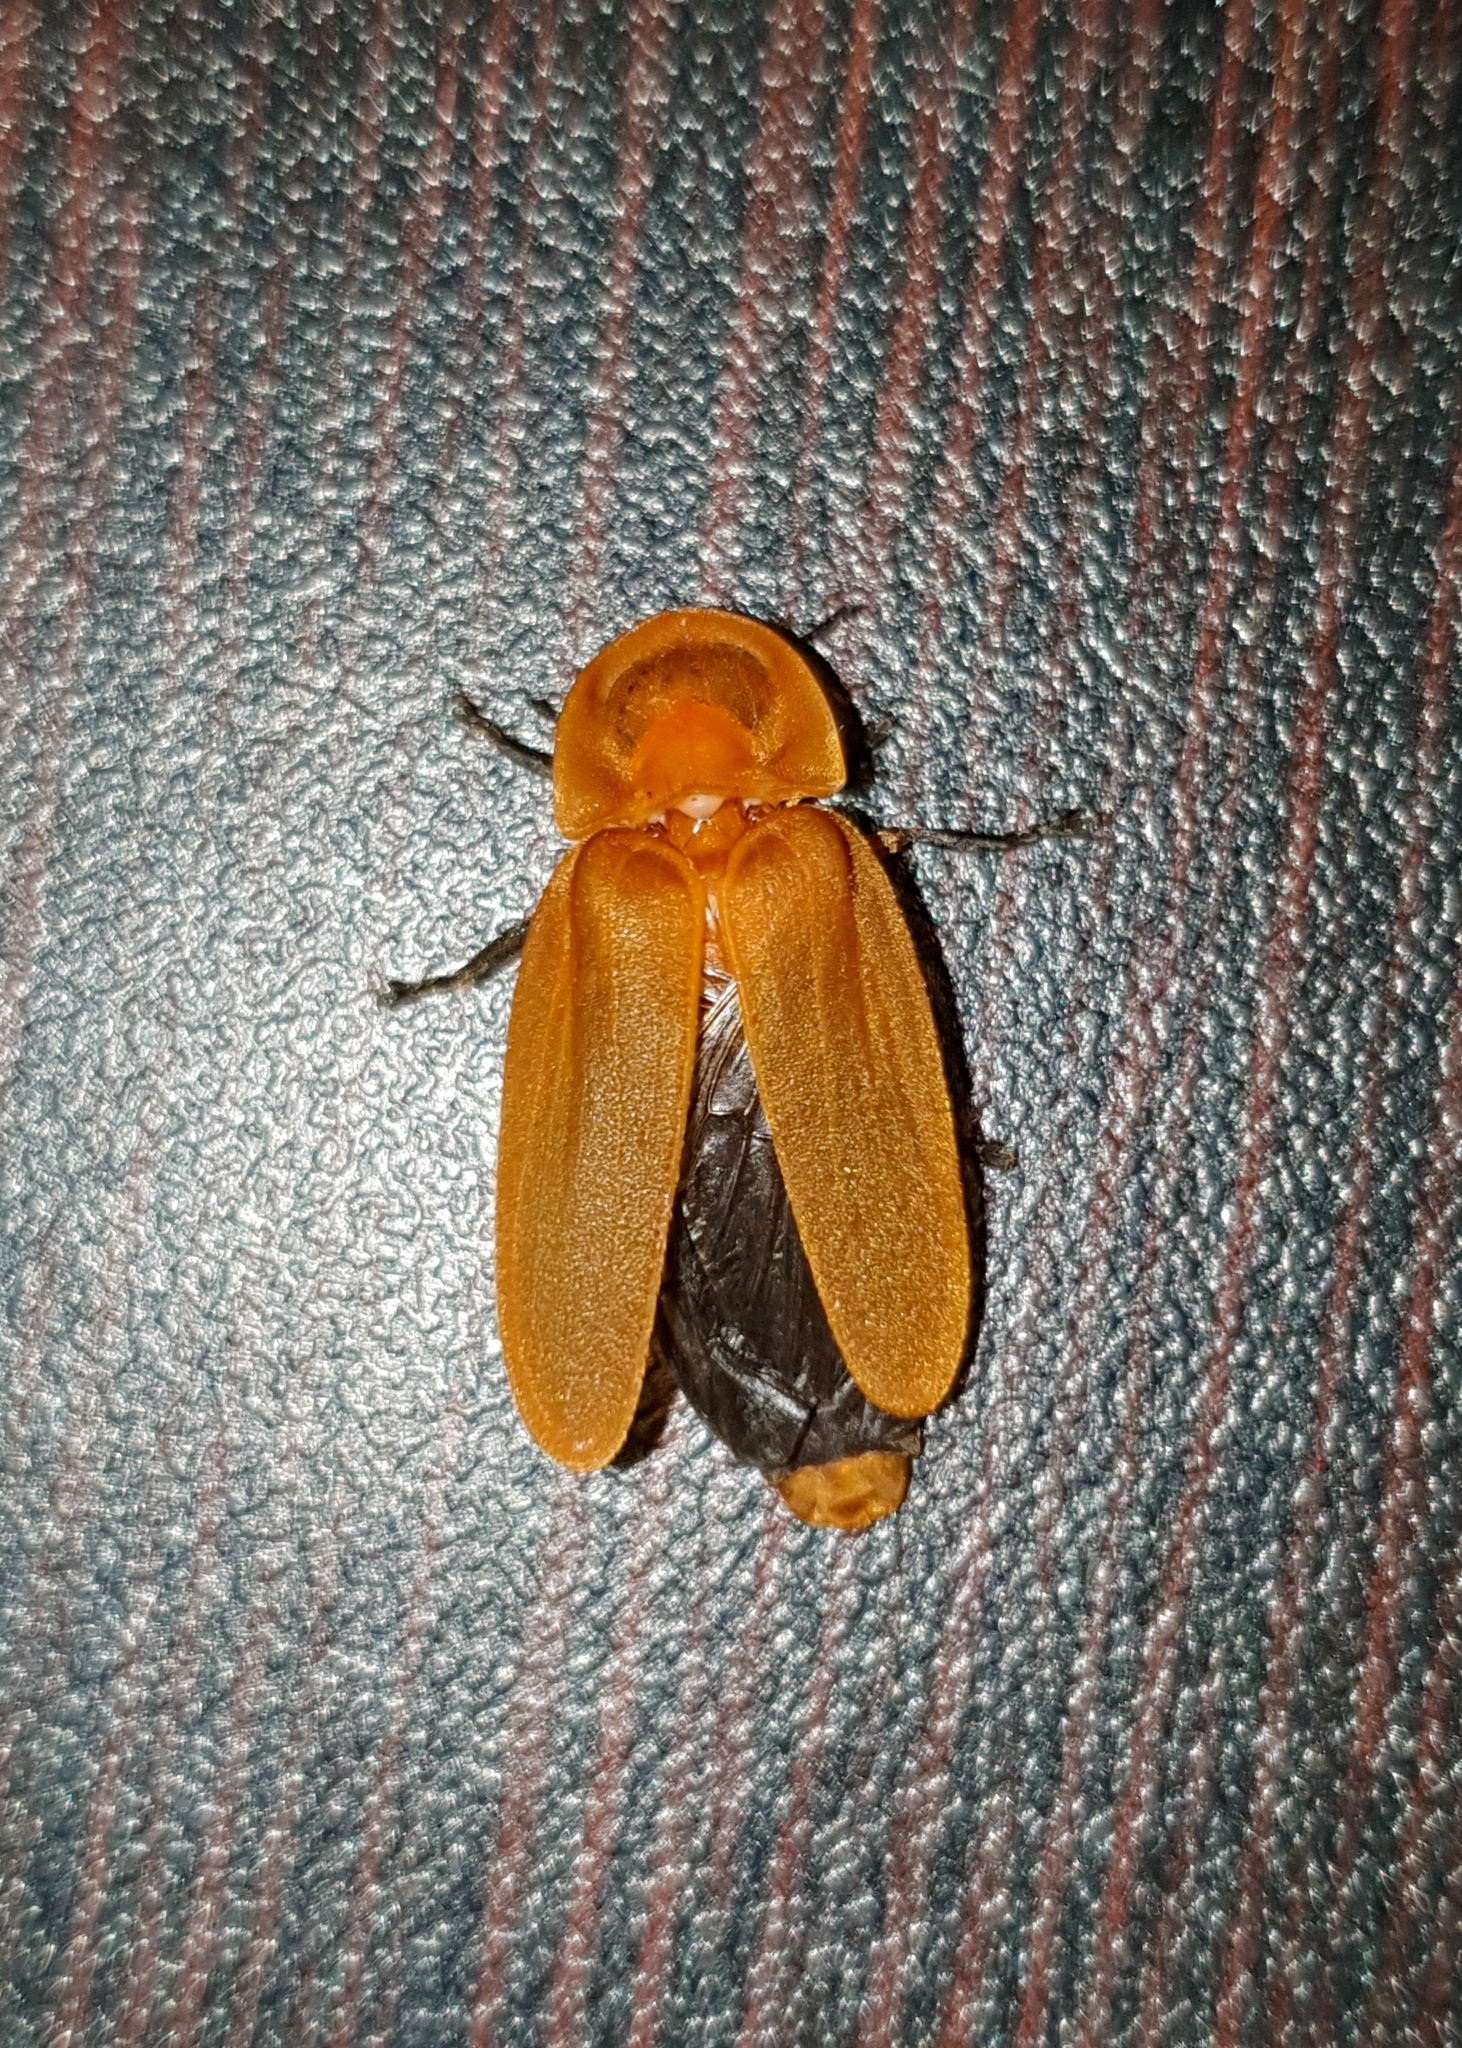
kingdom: Animalia
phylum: Arthropoda
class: Insecta
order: Coleoptera
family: Lampyridae
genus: Diaphanes
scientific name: Diaphanes lutescens
